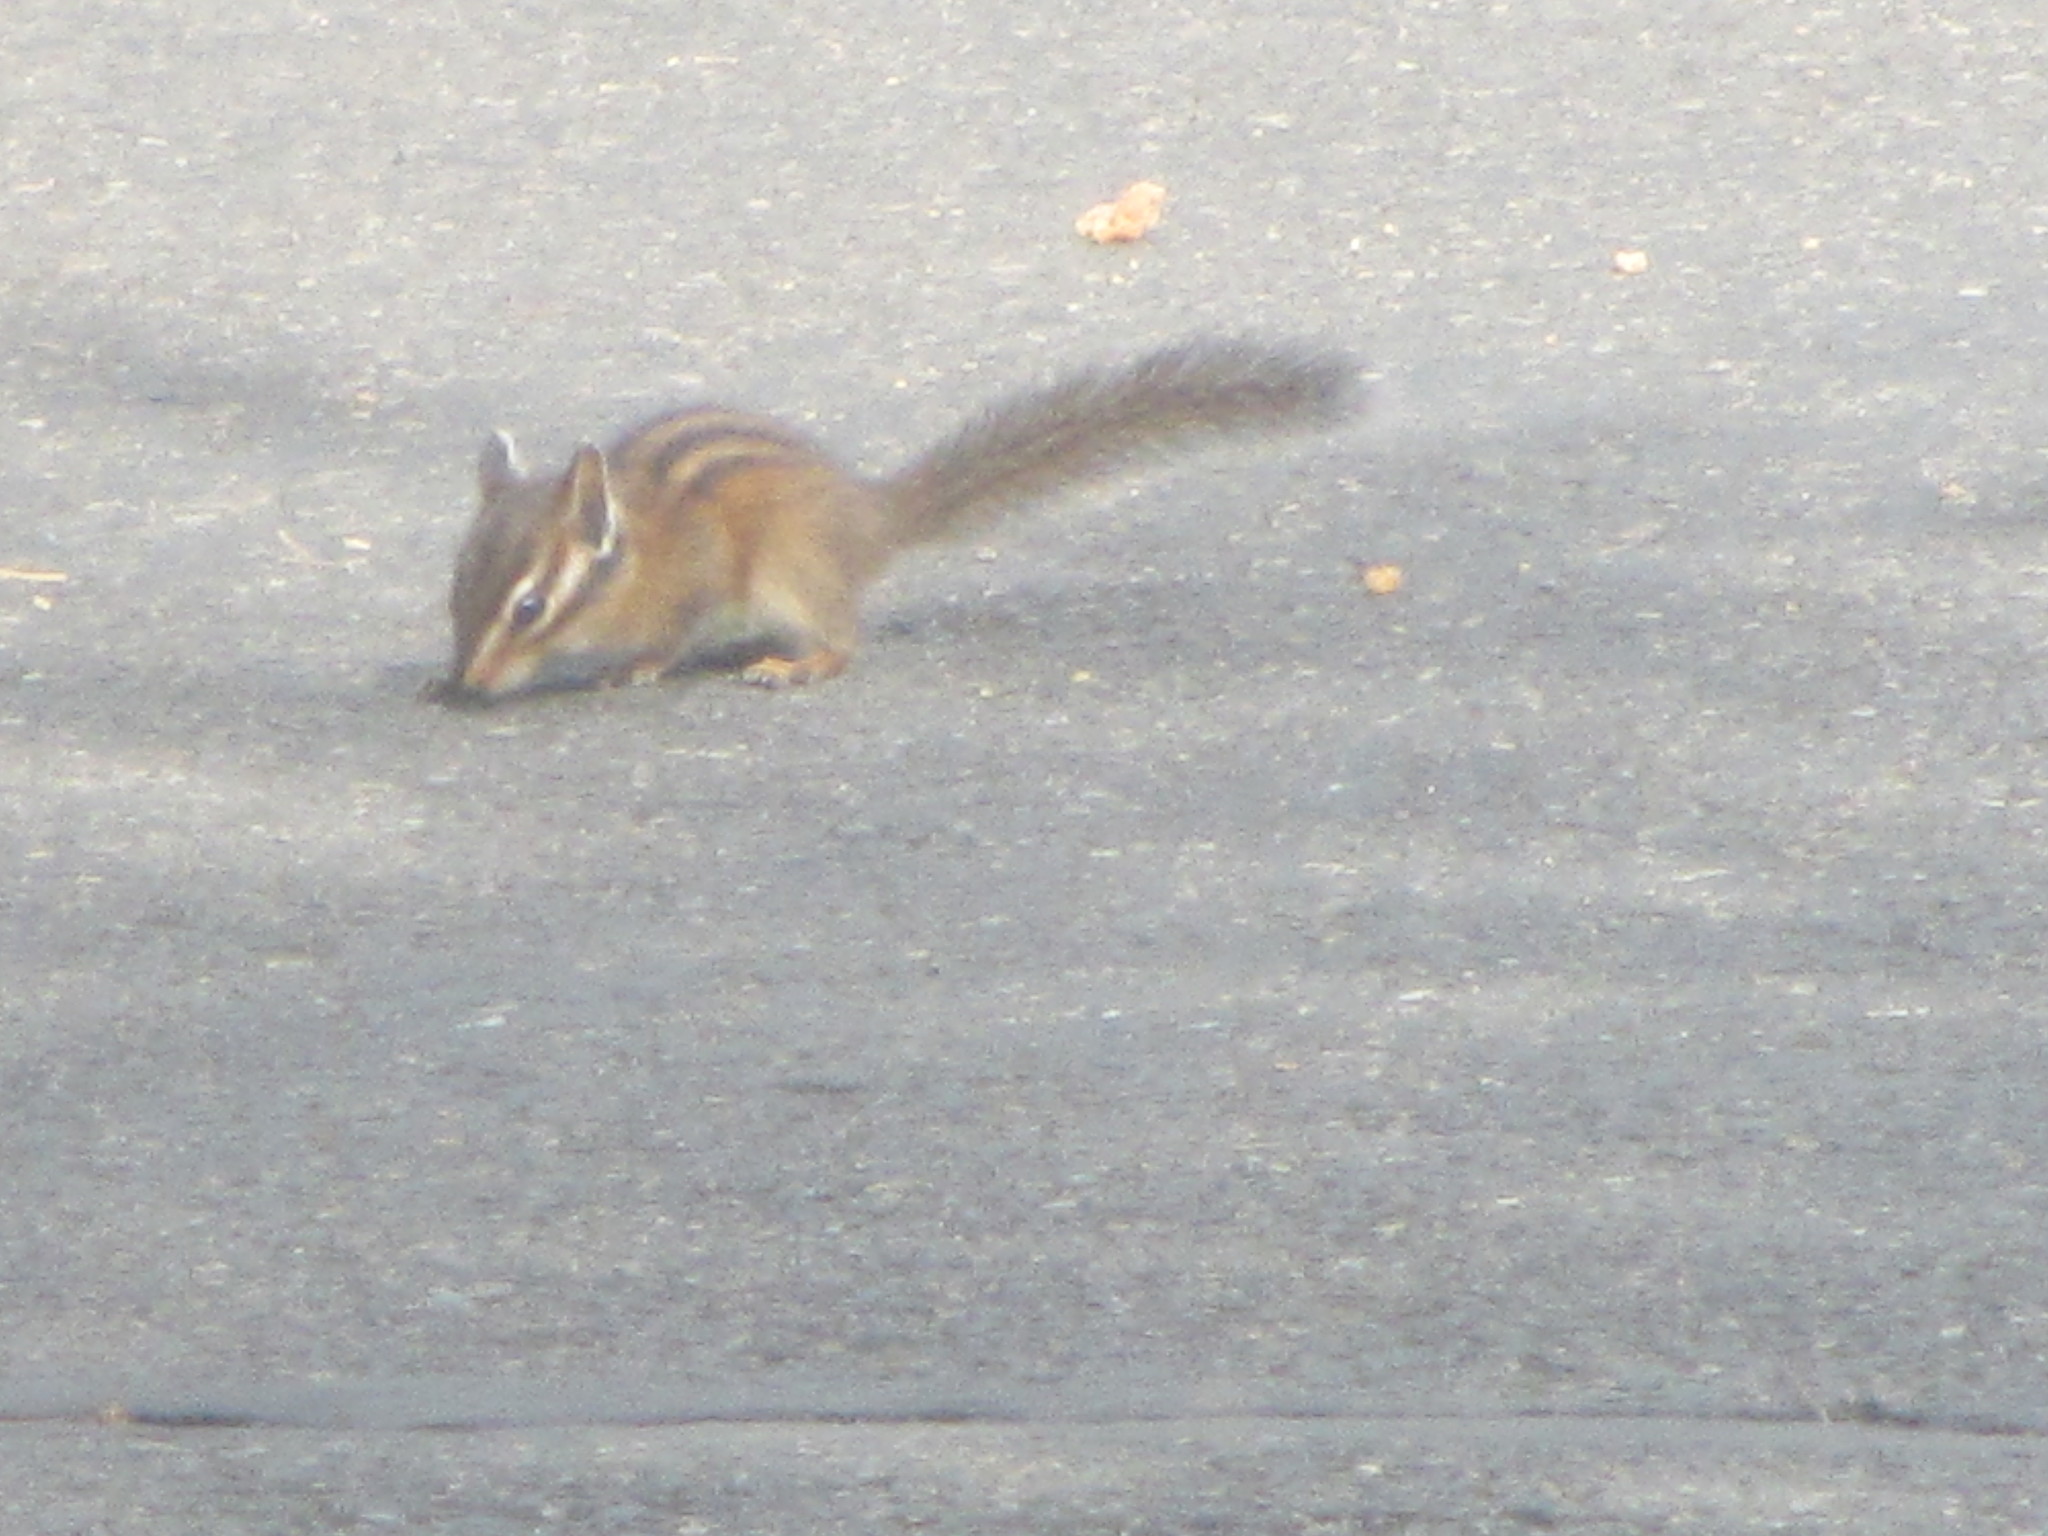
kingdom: Animalia
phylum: Chordata
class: Mammalia
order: Rodentia
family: Sciuridae
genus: Tamias
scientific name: Tamias townsendii
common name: Townsend's chipmunk
